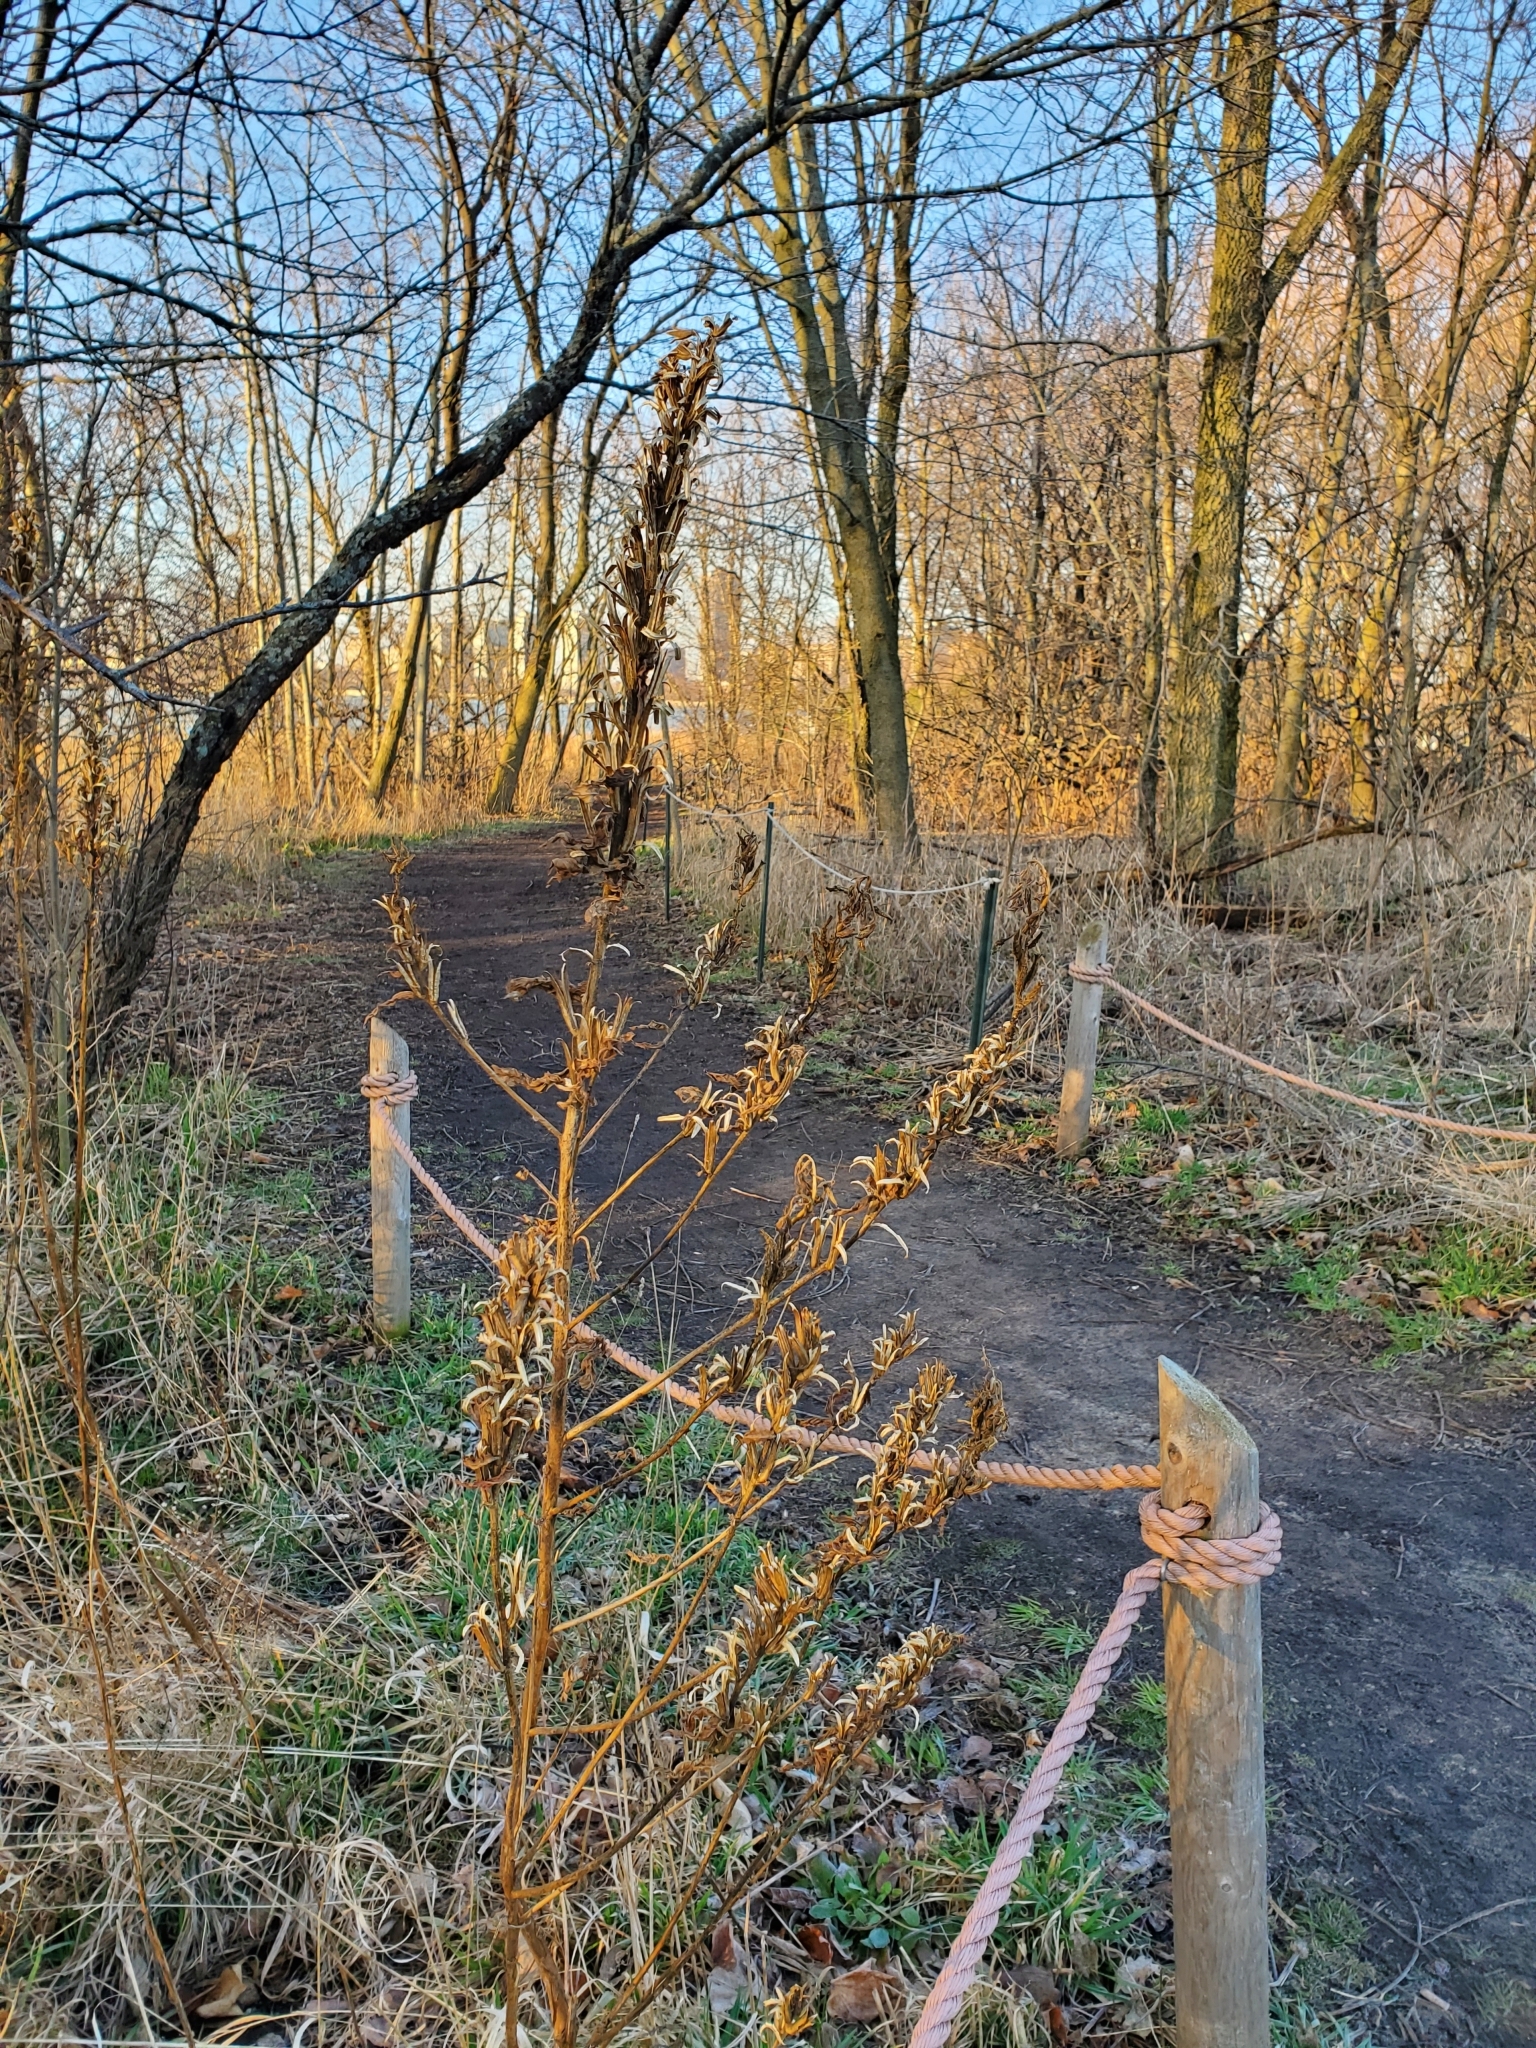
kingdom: Plantae
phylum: Tracheophyta
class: Magnoliopsida
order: Myrtales
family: Onagraceae
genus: Oenothera
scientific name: Oenothera
